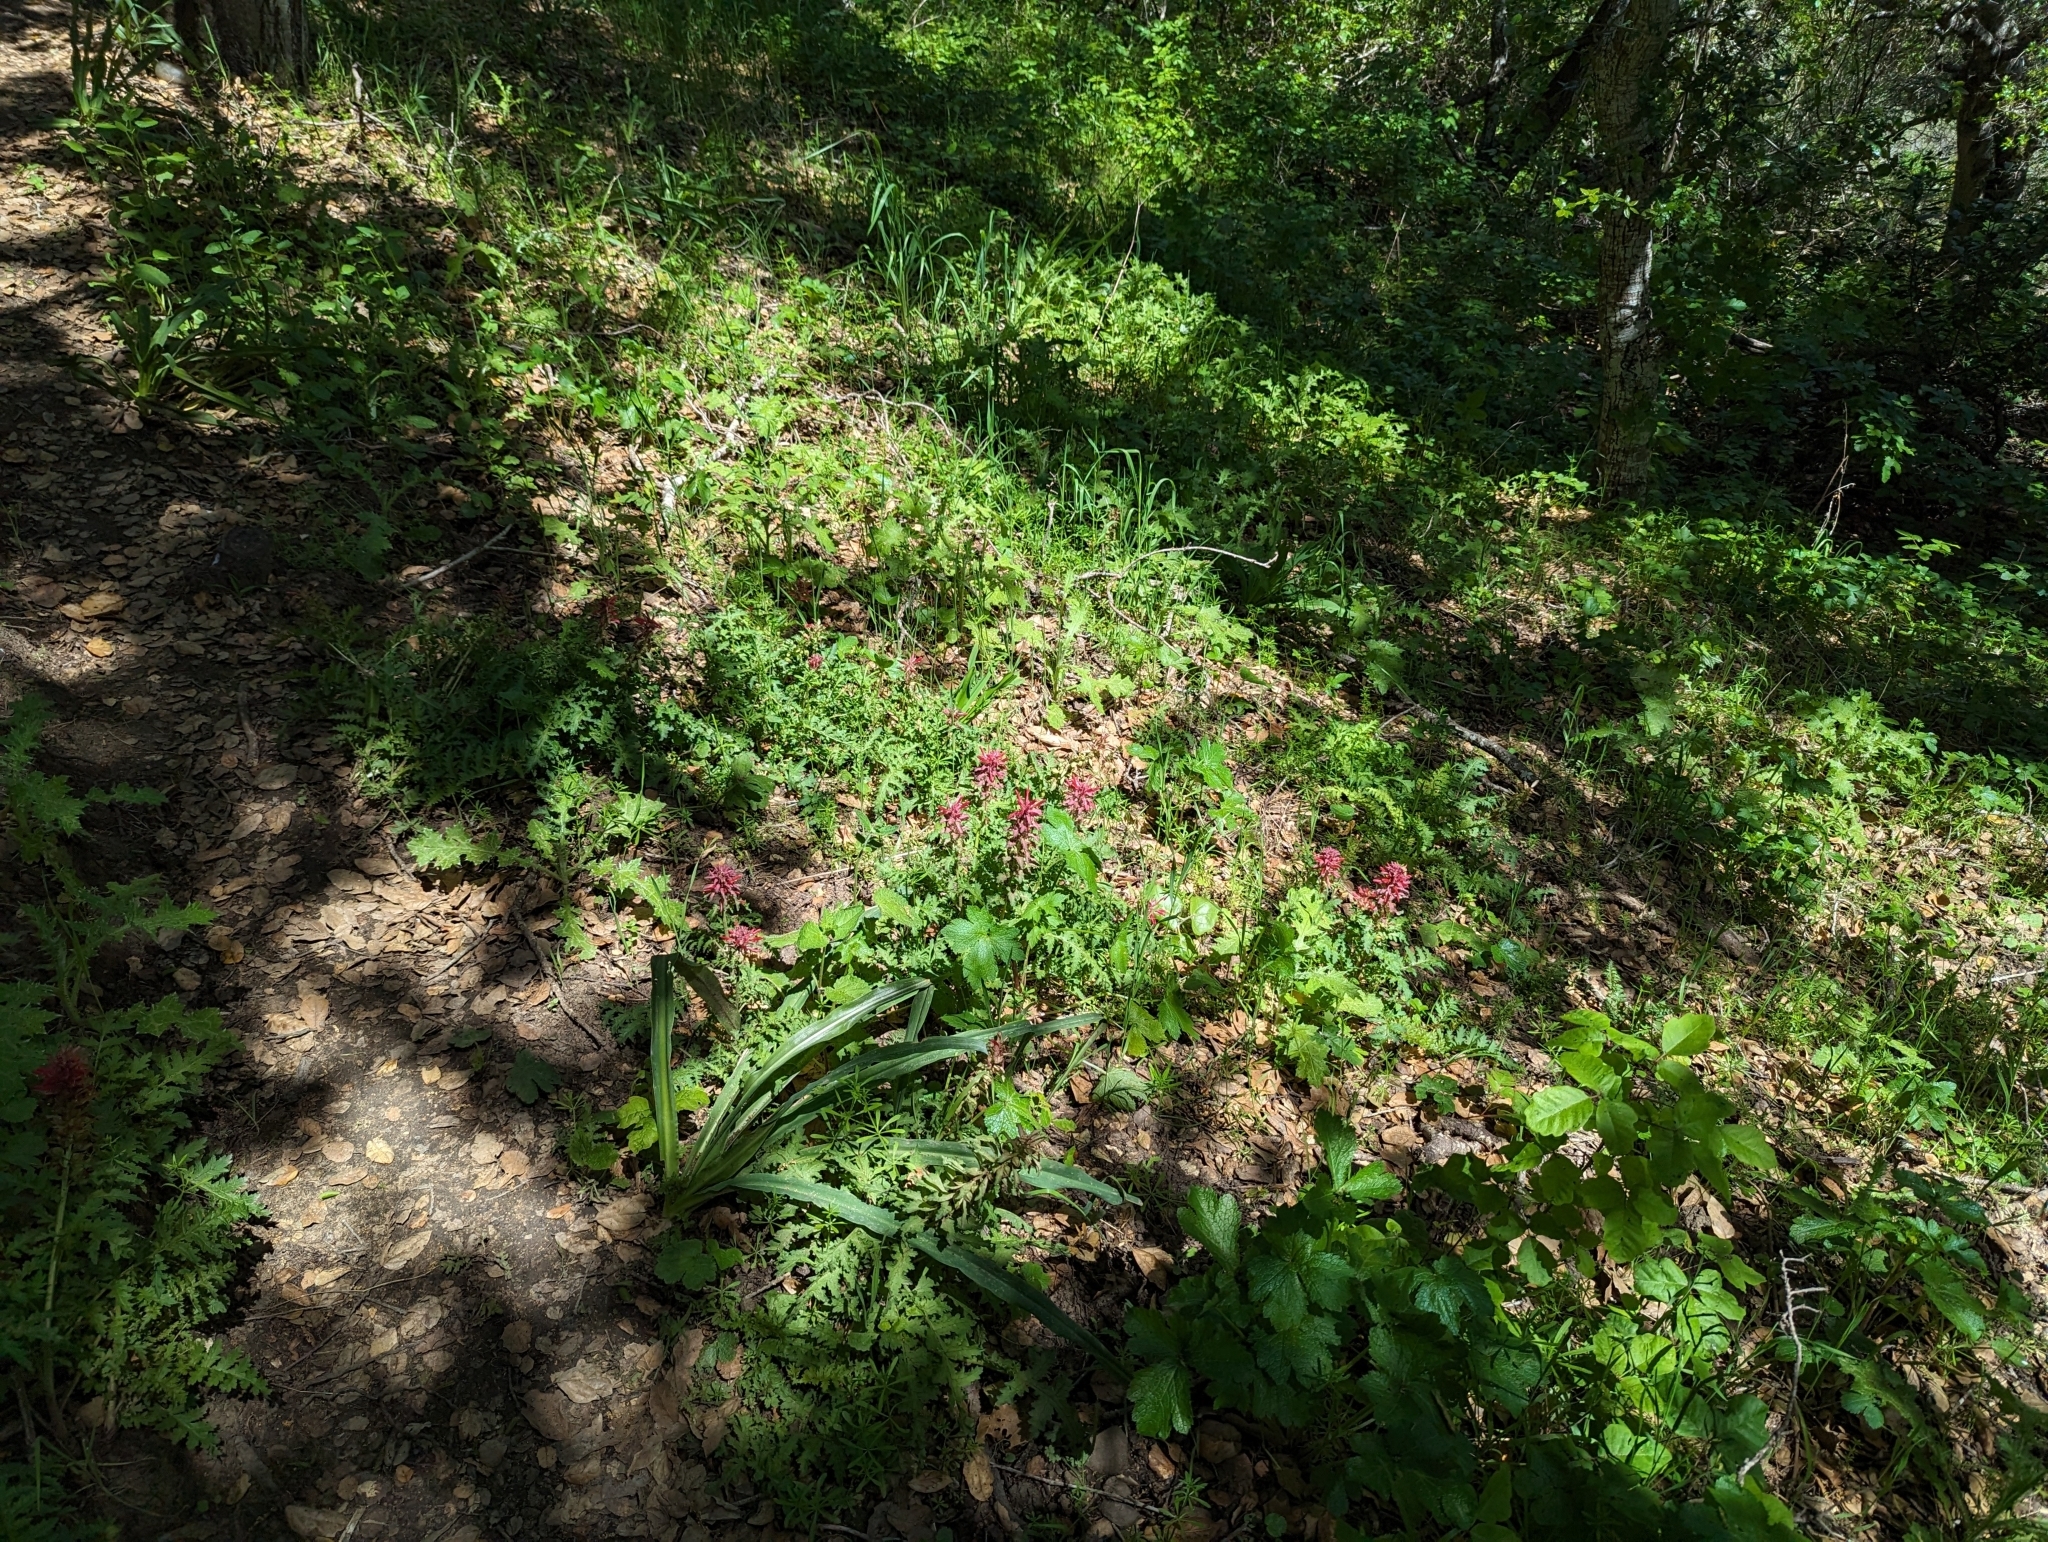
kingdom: Plantae
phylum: Tracheophyta
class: Magnoliopsida
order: Lamiales
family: Orobanchaceae
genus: Pedicularis
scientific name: Pedicularis densiflora
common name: Indian warrior
